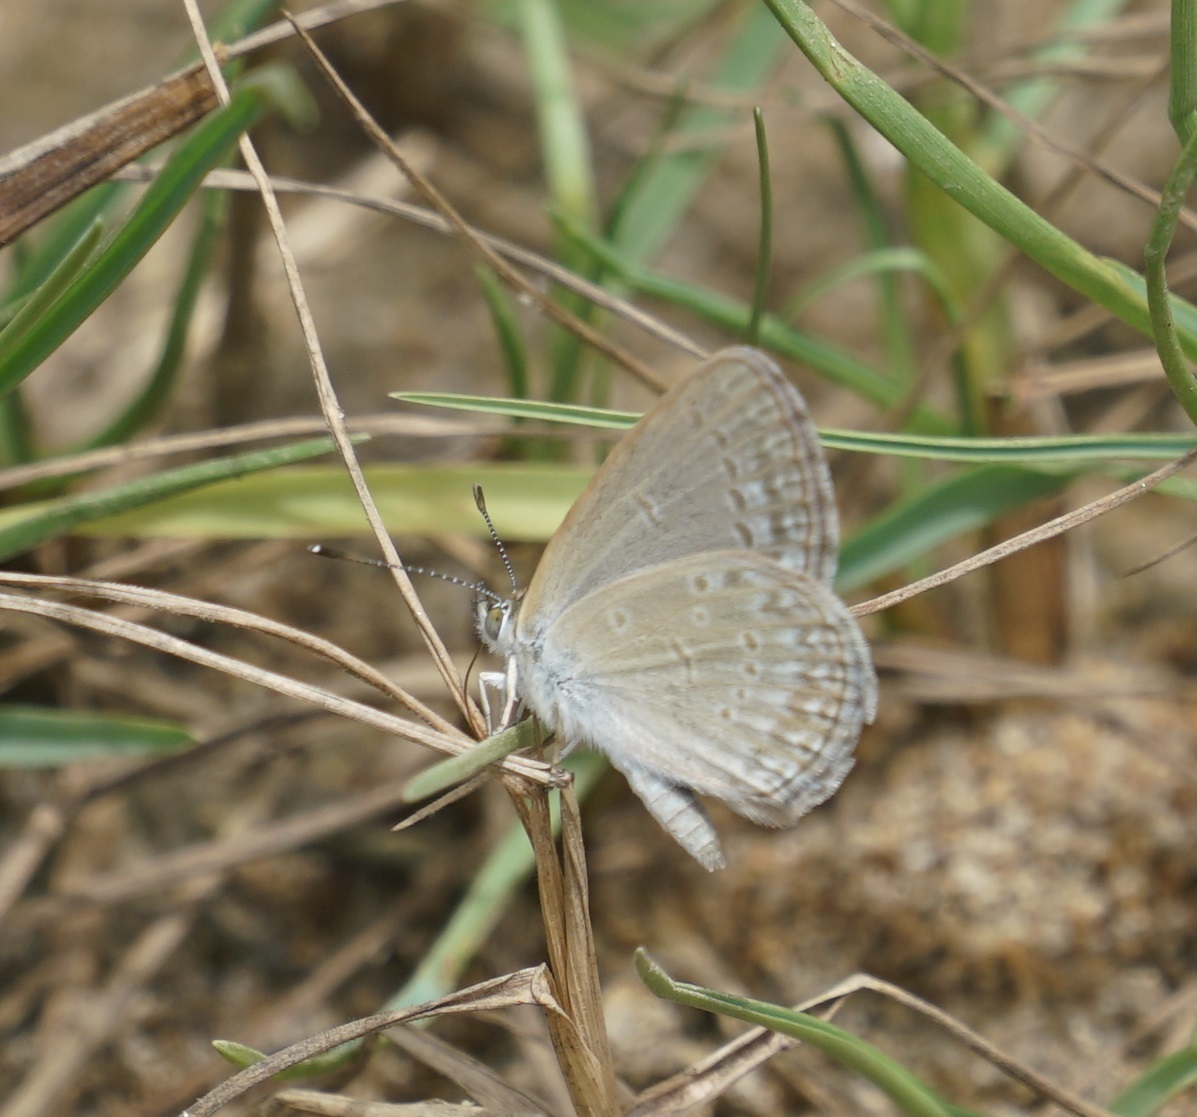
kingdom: Animalia
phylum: Arthropoda
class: Insecta
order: Lepidoptera
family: Lycaenidae
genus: Zizina
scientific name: Zizina otis
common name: Lesser grass blue
